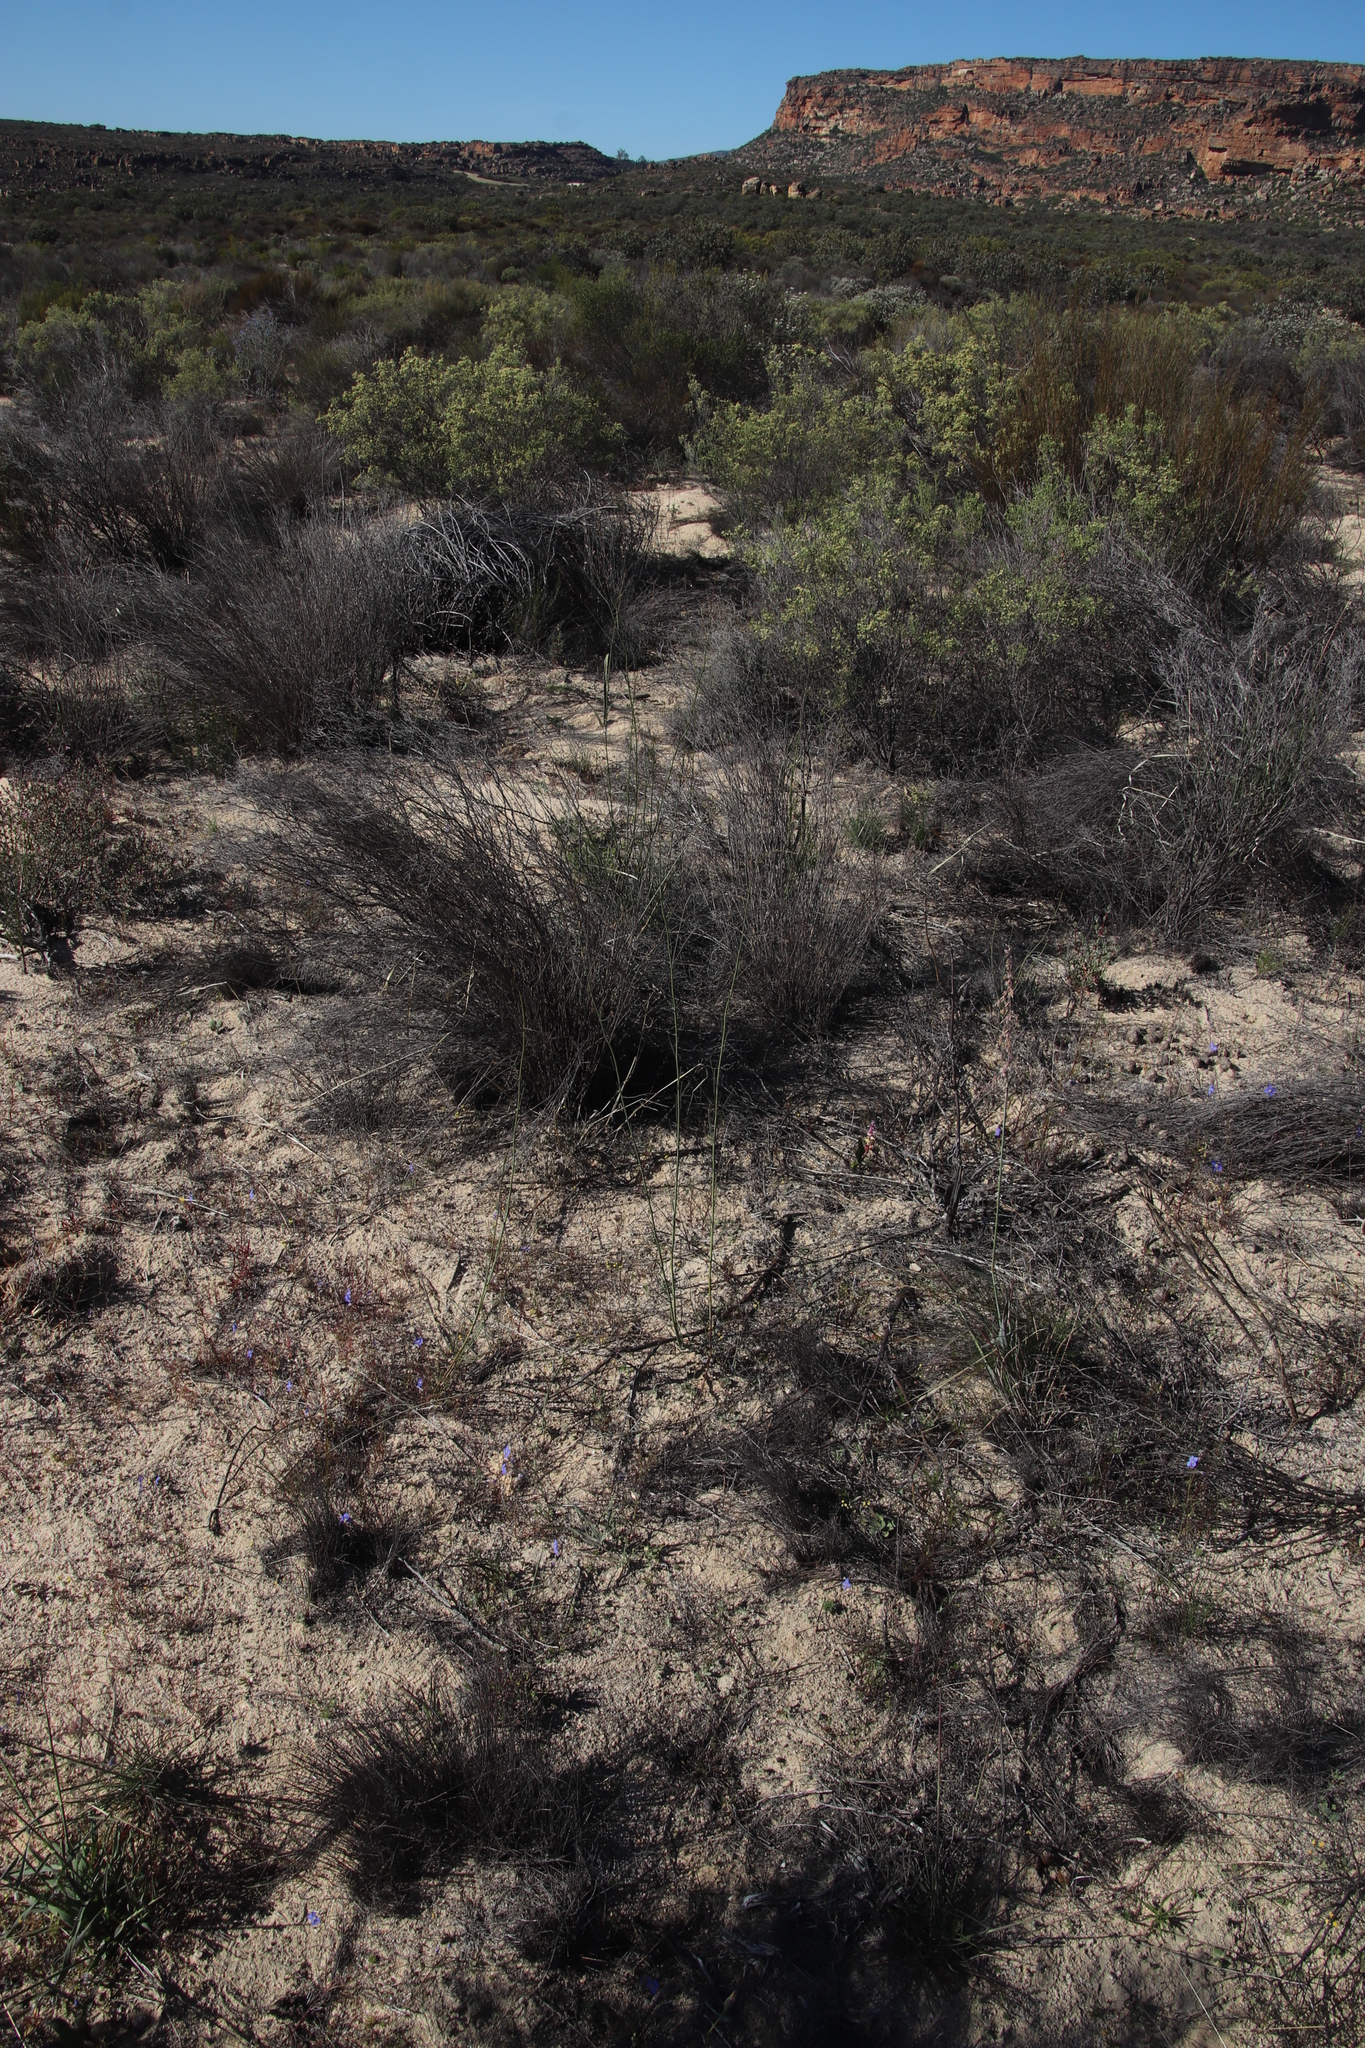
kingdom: Plantae
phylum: Tracheophyta
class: Magnoliopsida
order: Brassicales
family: Brassicaceae
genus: Heliophila
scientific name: Heliophila elata
